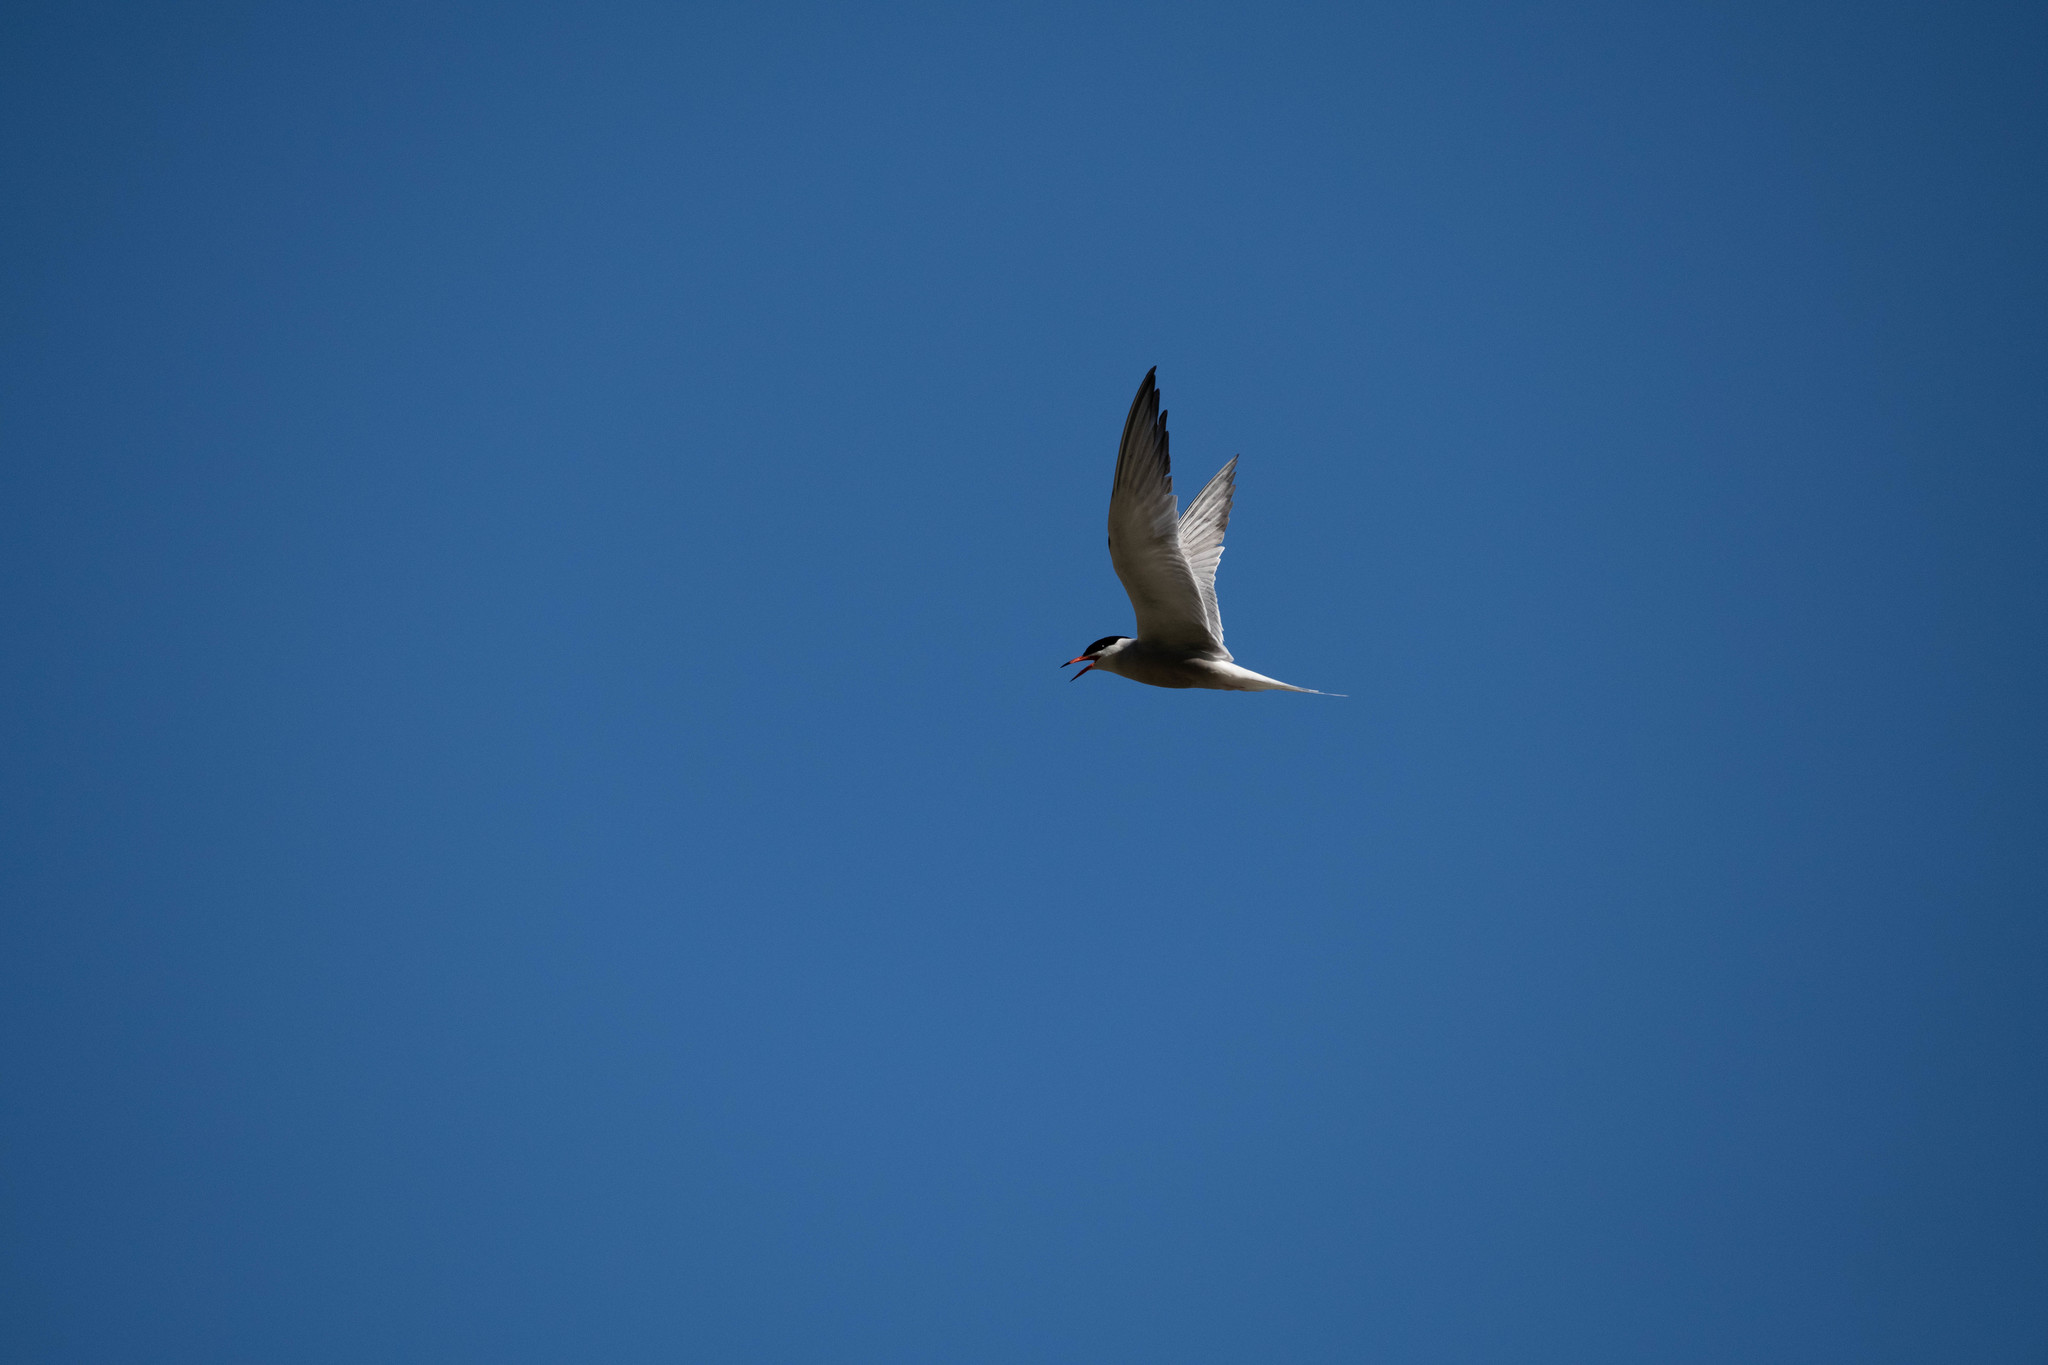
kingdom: Animalia
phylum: Chordata
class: Aves
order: Charadriiformes
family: Laridae
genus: Sterna
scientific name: Sterna hirundo
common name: Common tern
